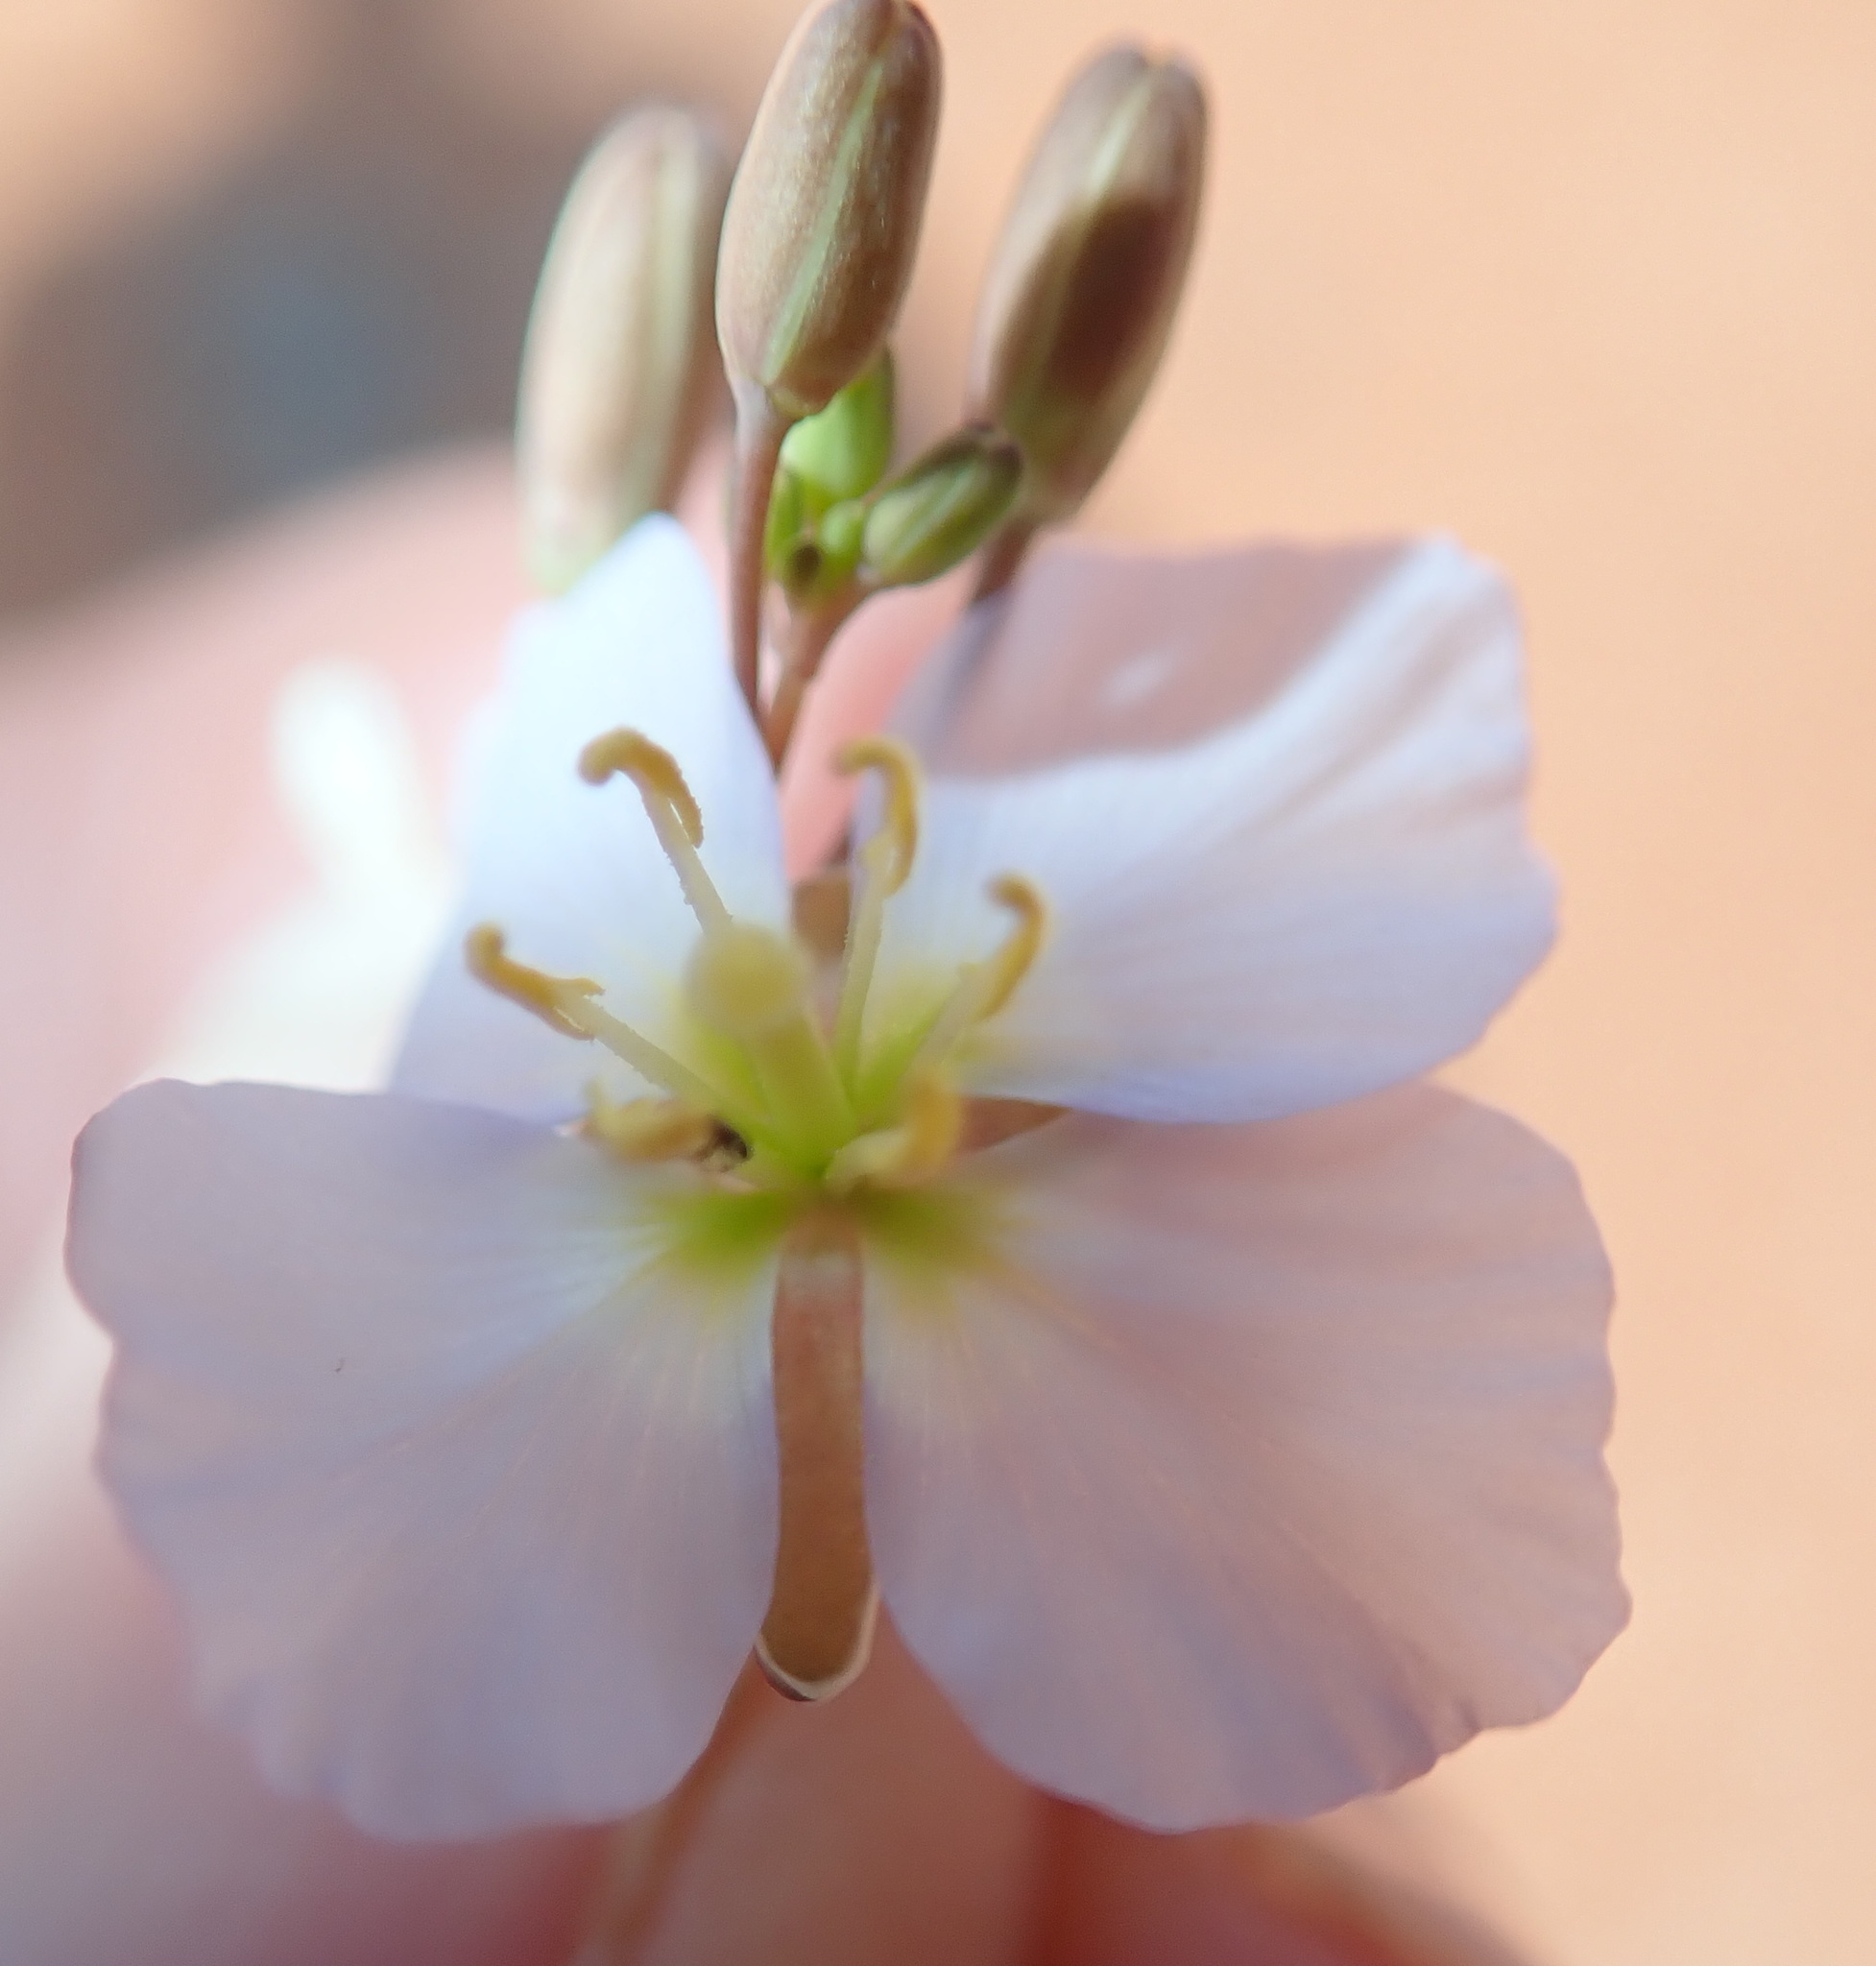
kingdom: Plantae
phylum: Tracheophyta
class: Magnoliopsida
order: Brassicales
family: Brassicaceae
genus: Heliophila
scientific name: Heliophila deserticola
